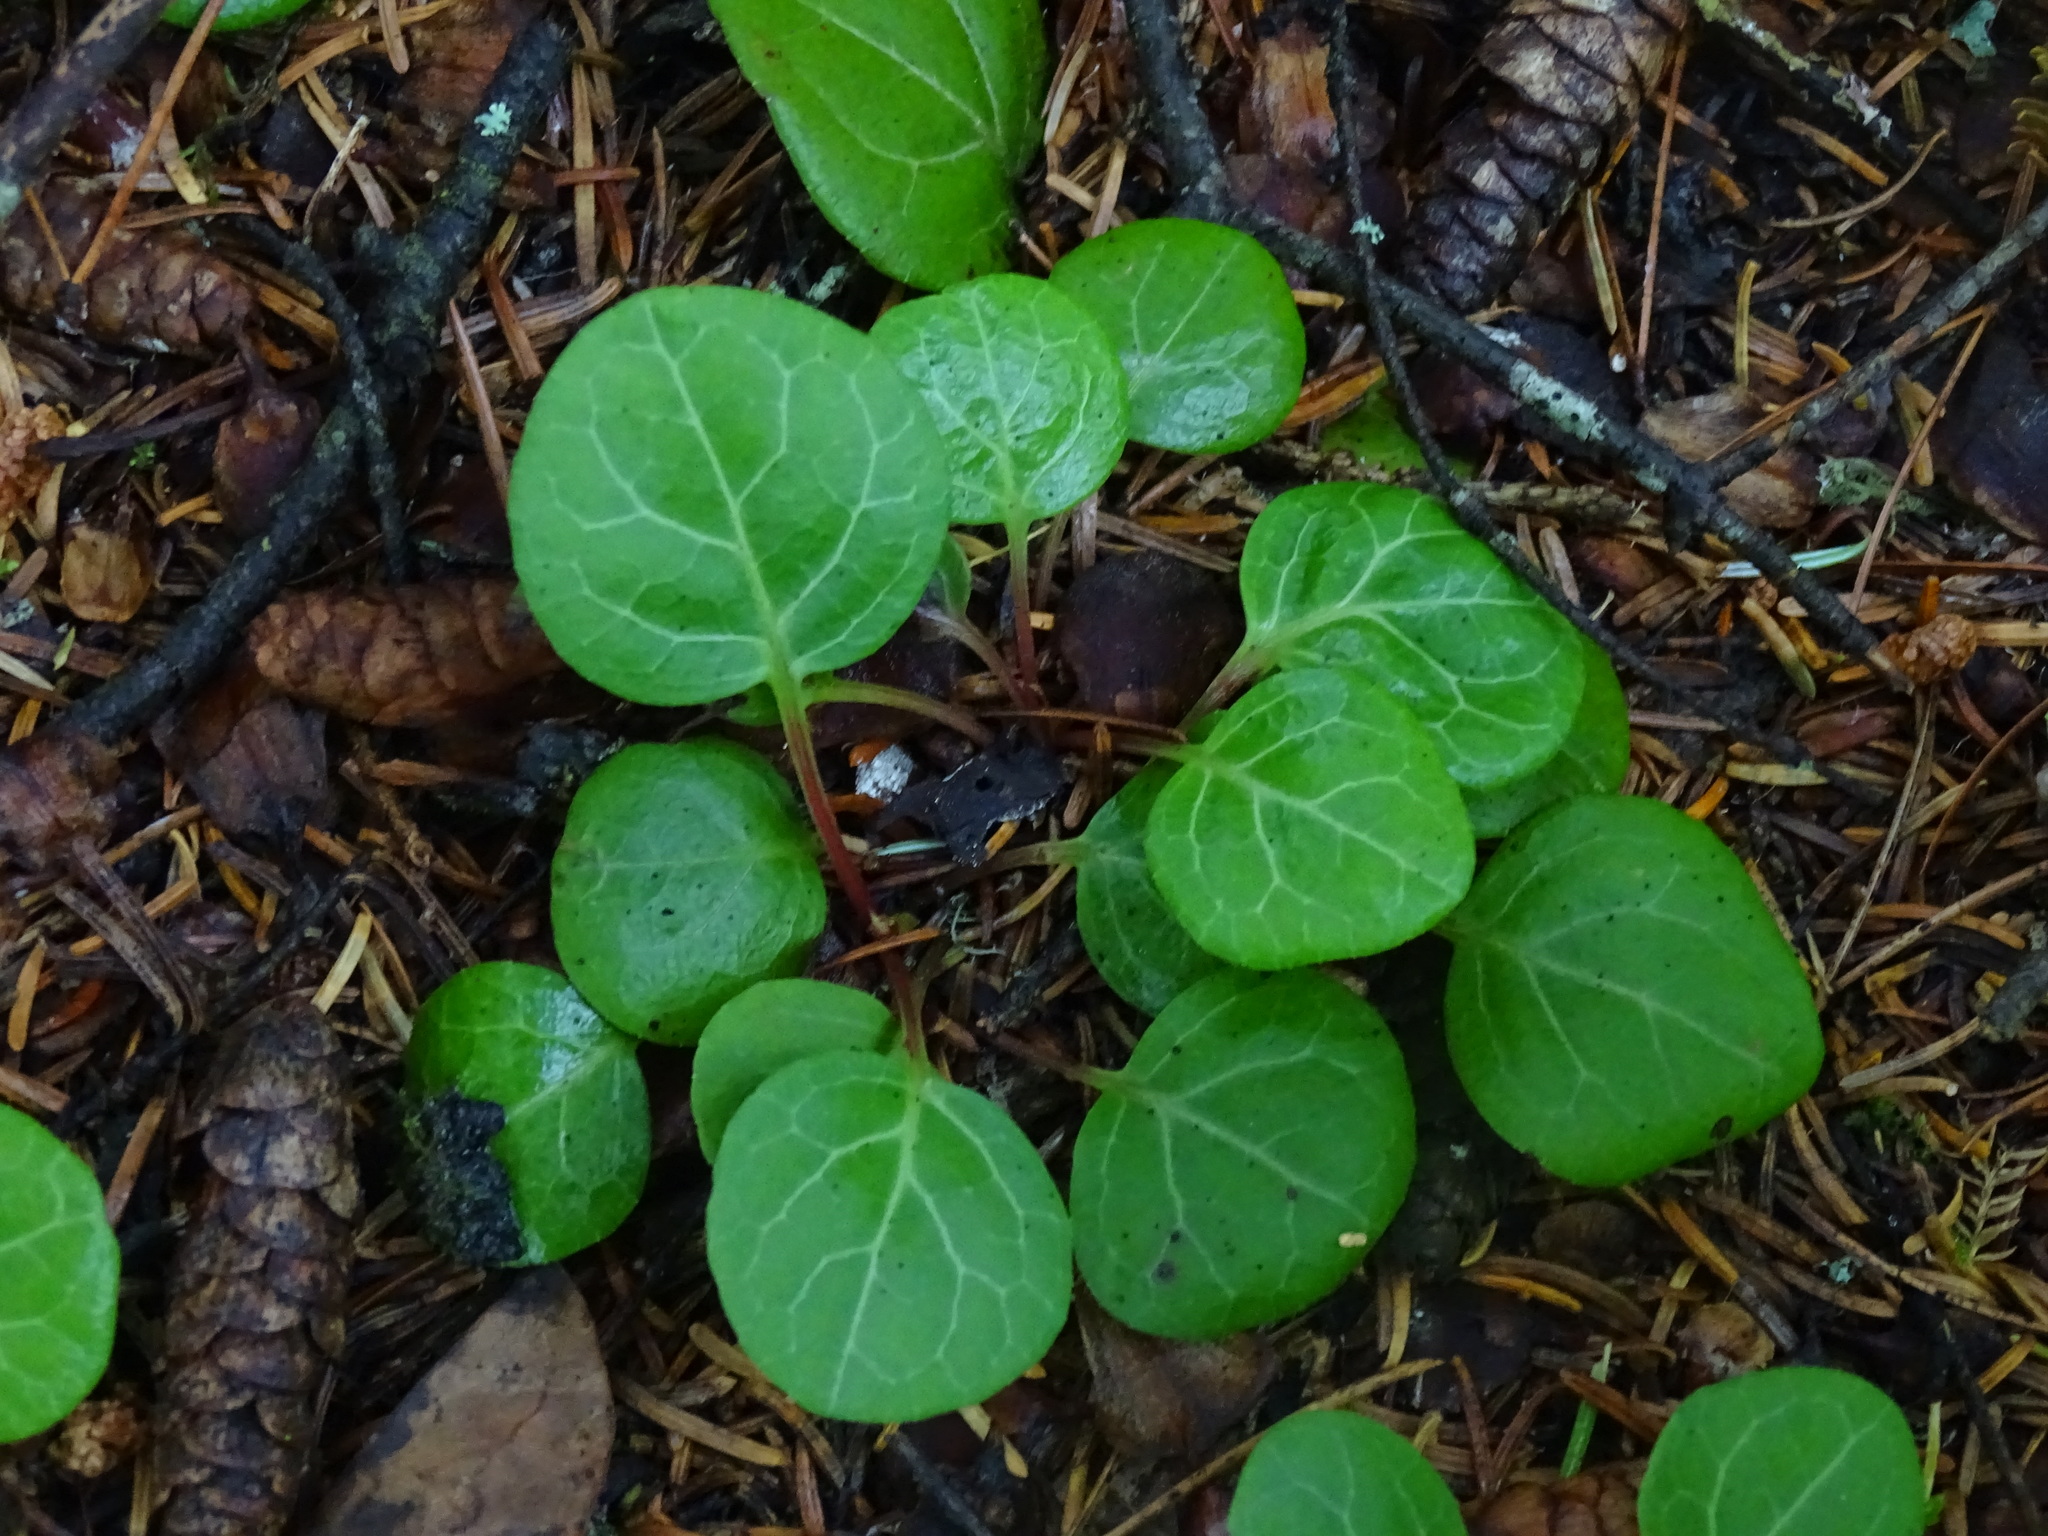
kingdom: Plantae
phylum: Tracheophyta
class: Magnoliopsida
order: Ericales
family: Ericaceae
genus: Pyrola
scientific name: Pyrola chlorantha
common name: Green wintergreen
